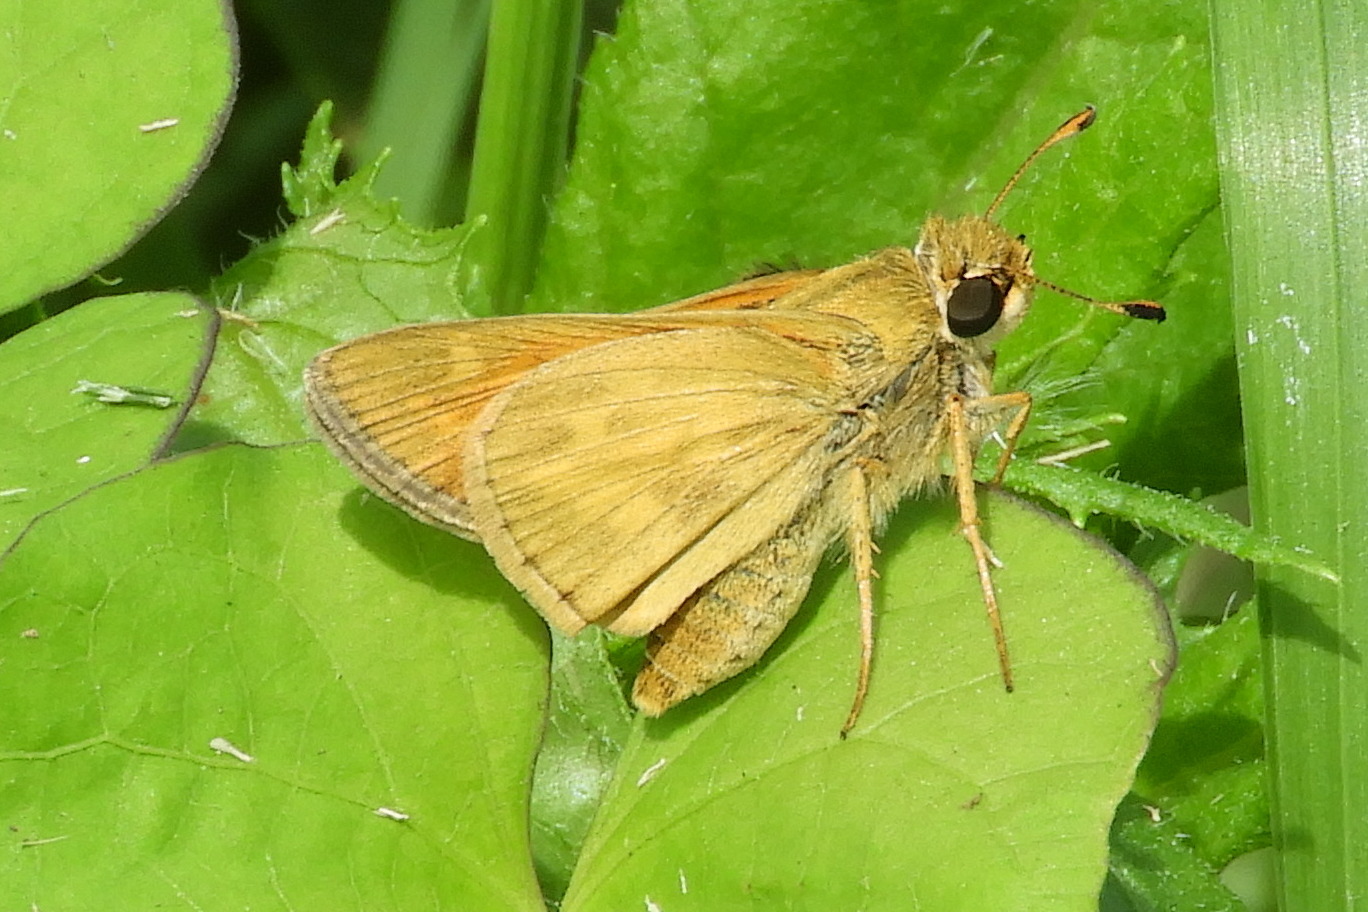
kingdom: Animalia
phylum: Arthropoda
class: Insecta
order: Lepidoptera
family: Hesperiidae
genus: Atalopedes
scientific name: Atalopedes
